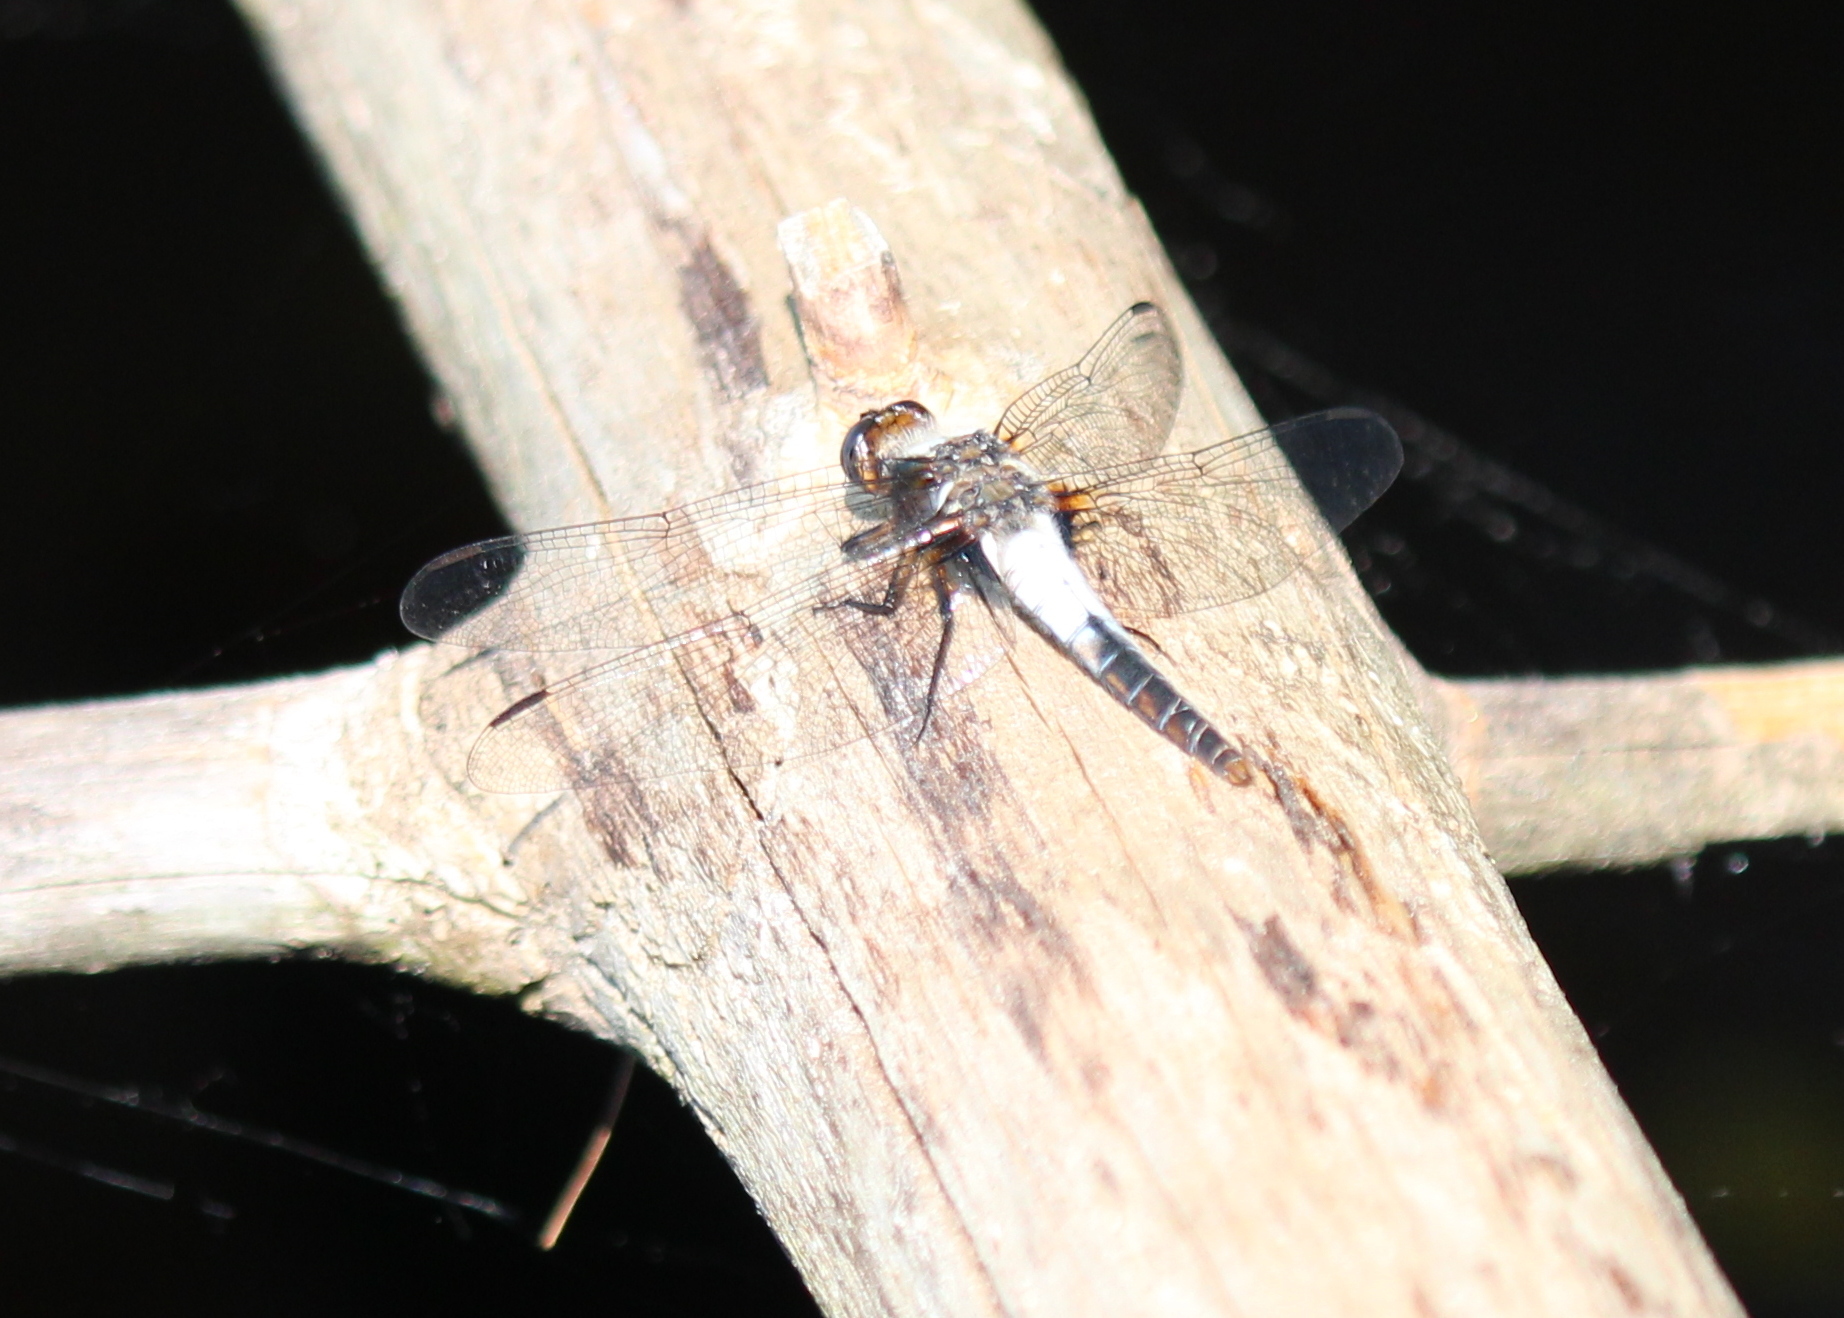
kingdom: Animalia
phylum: Arthropoda
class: Insecta
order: Odonata
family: Libellulidae
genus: Ladona
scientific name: Ladona julia
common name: Chalk-fronted corporal
